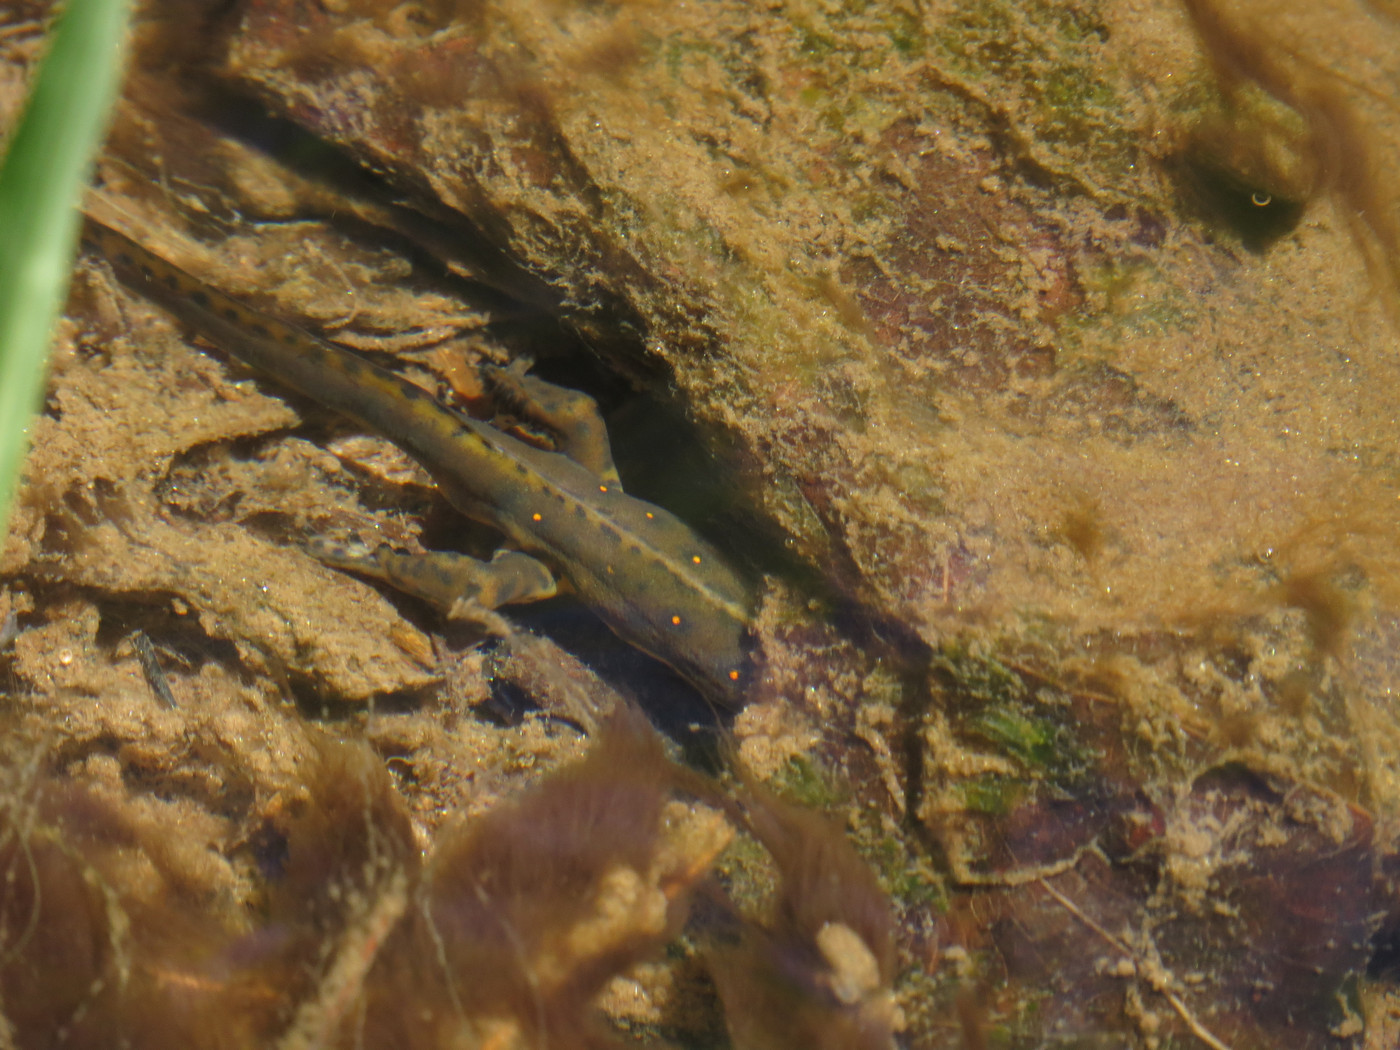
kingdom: Animalia
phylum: Chordata
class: Amphibia
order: Caudata
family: Salamandridae
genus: Notophthalmus
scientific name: Notophthalmus viridescens
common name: Eastern newt
